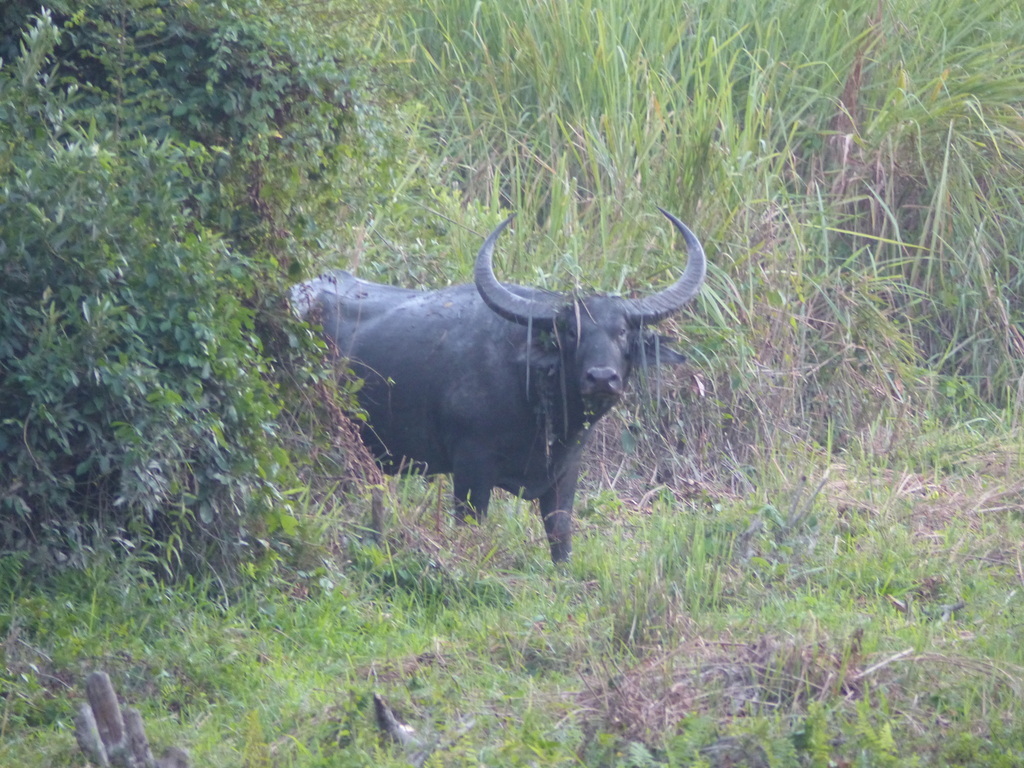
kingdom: Animalia
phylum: Chordata
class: Mammalia
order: Artiodactyla
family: Bovidae
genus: Bubalus
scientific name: Bubalus bubalis
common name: Water buffalo
